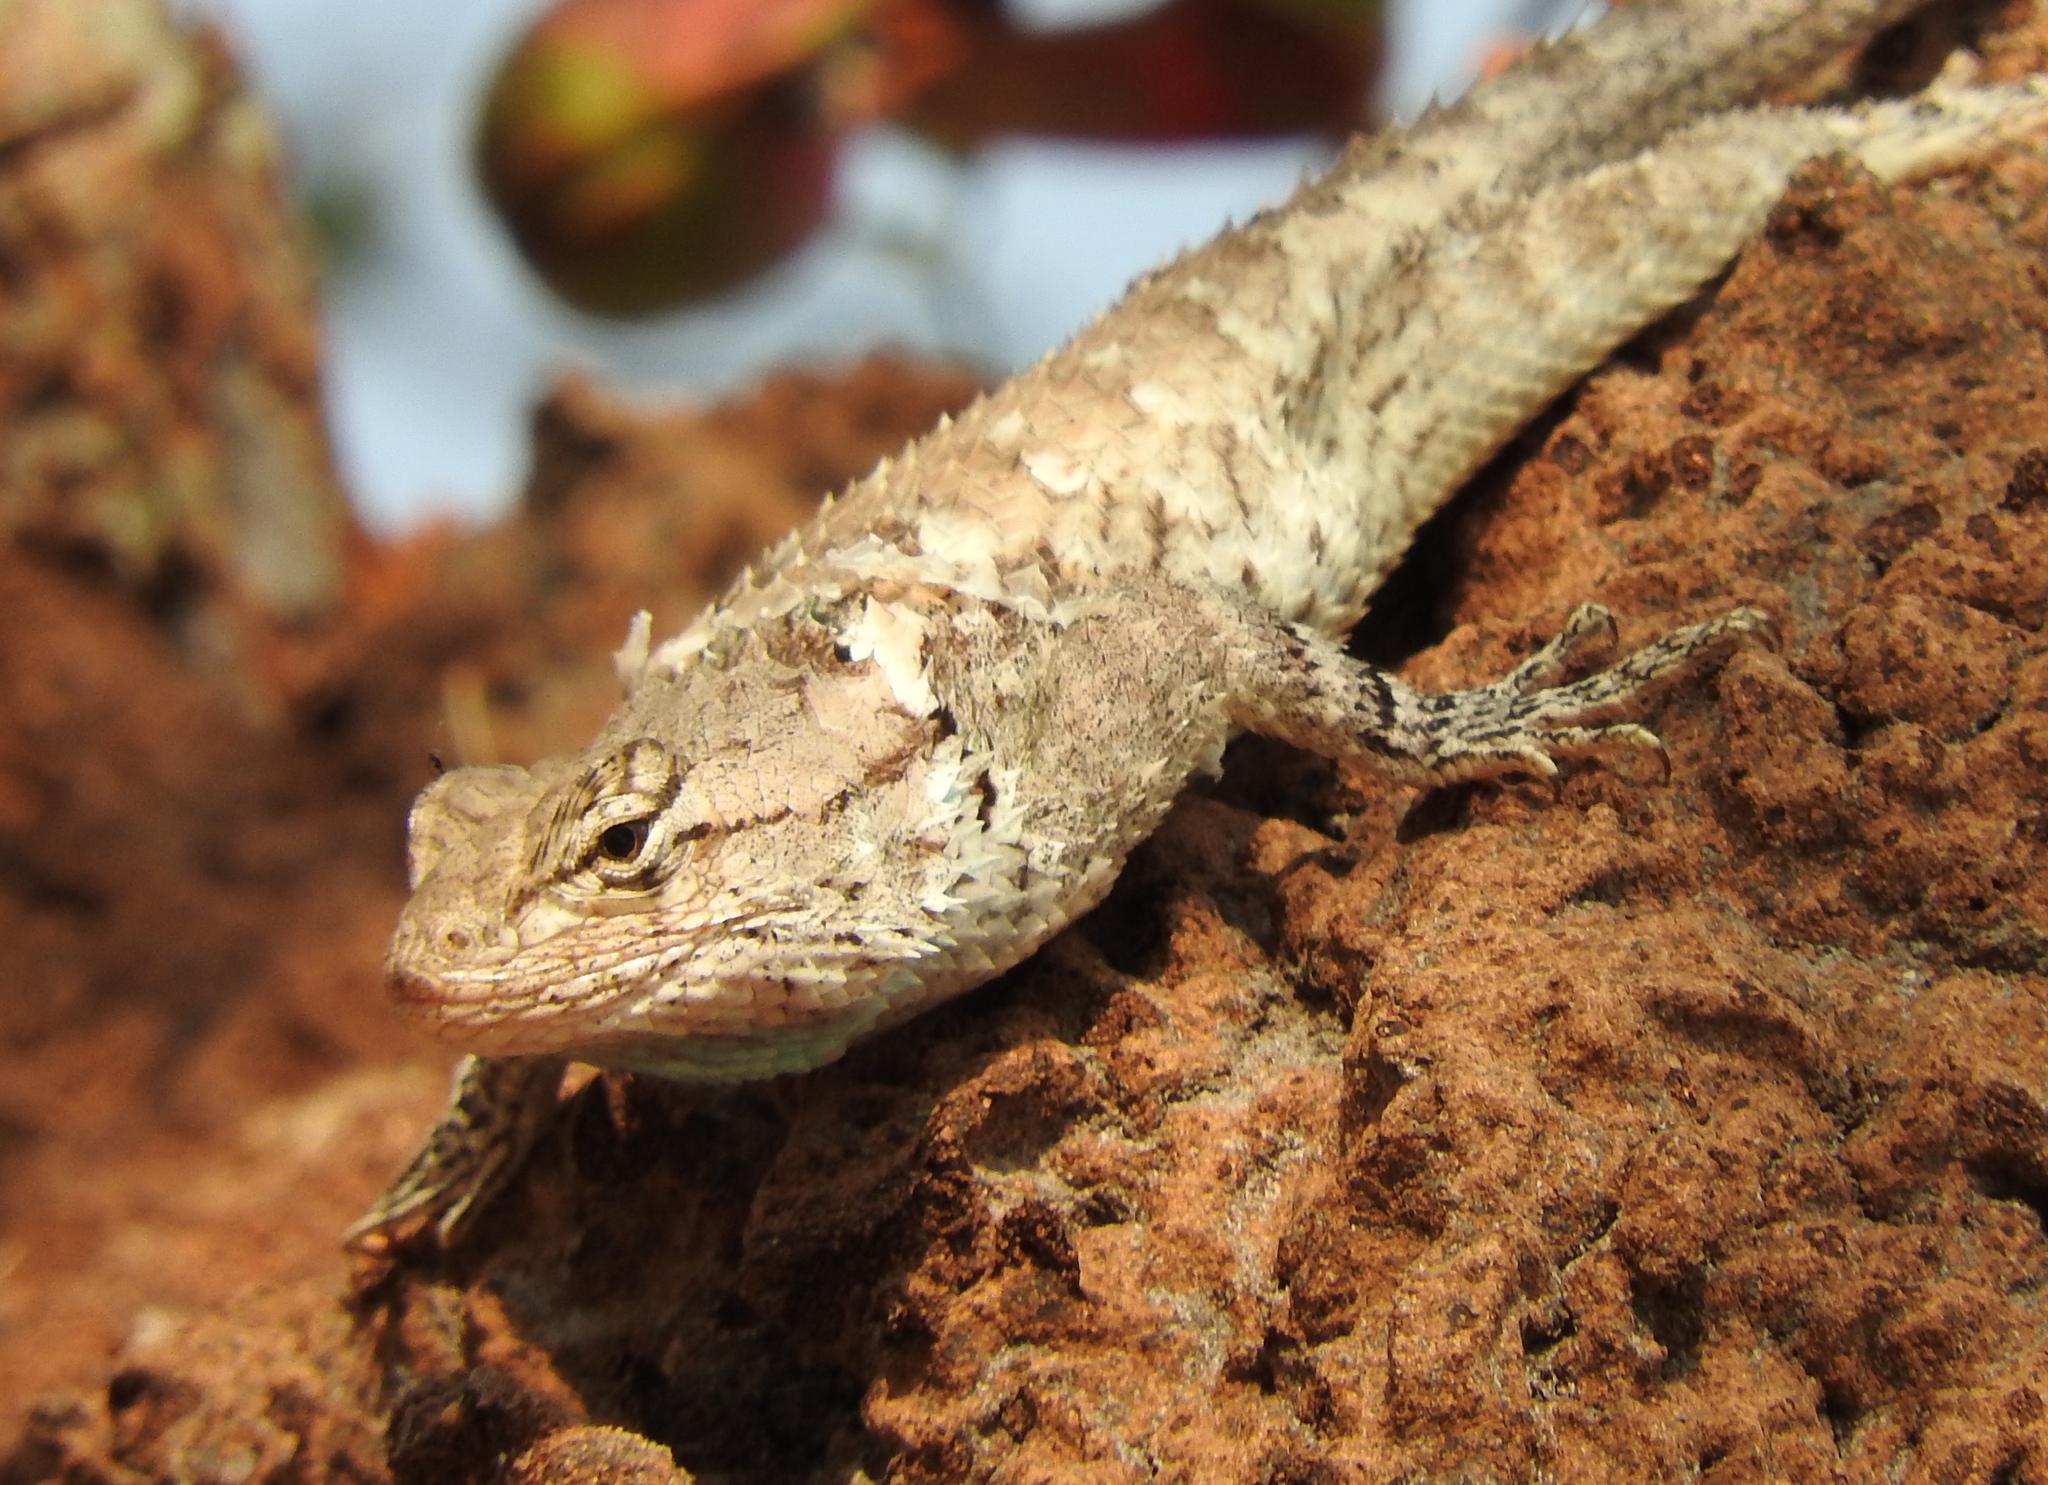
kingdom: Animalia
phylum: Chordata
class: Squamata
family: Phrynosomatidae
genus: Sceloporus
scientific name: Sceloporus clarkii
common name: Clark's spiny lizard
